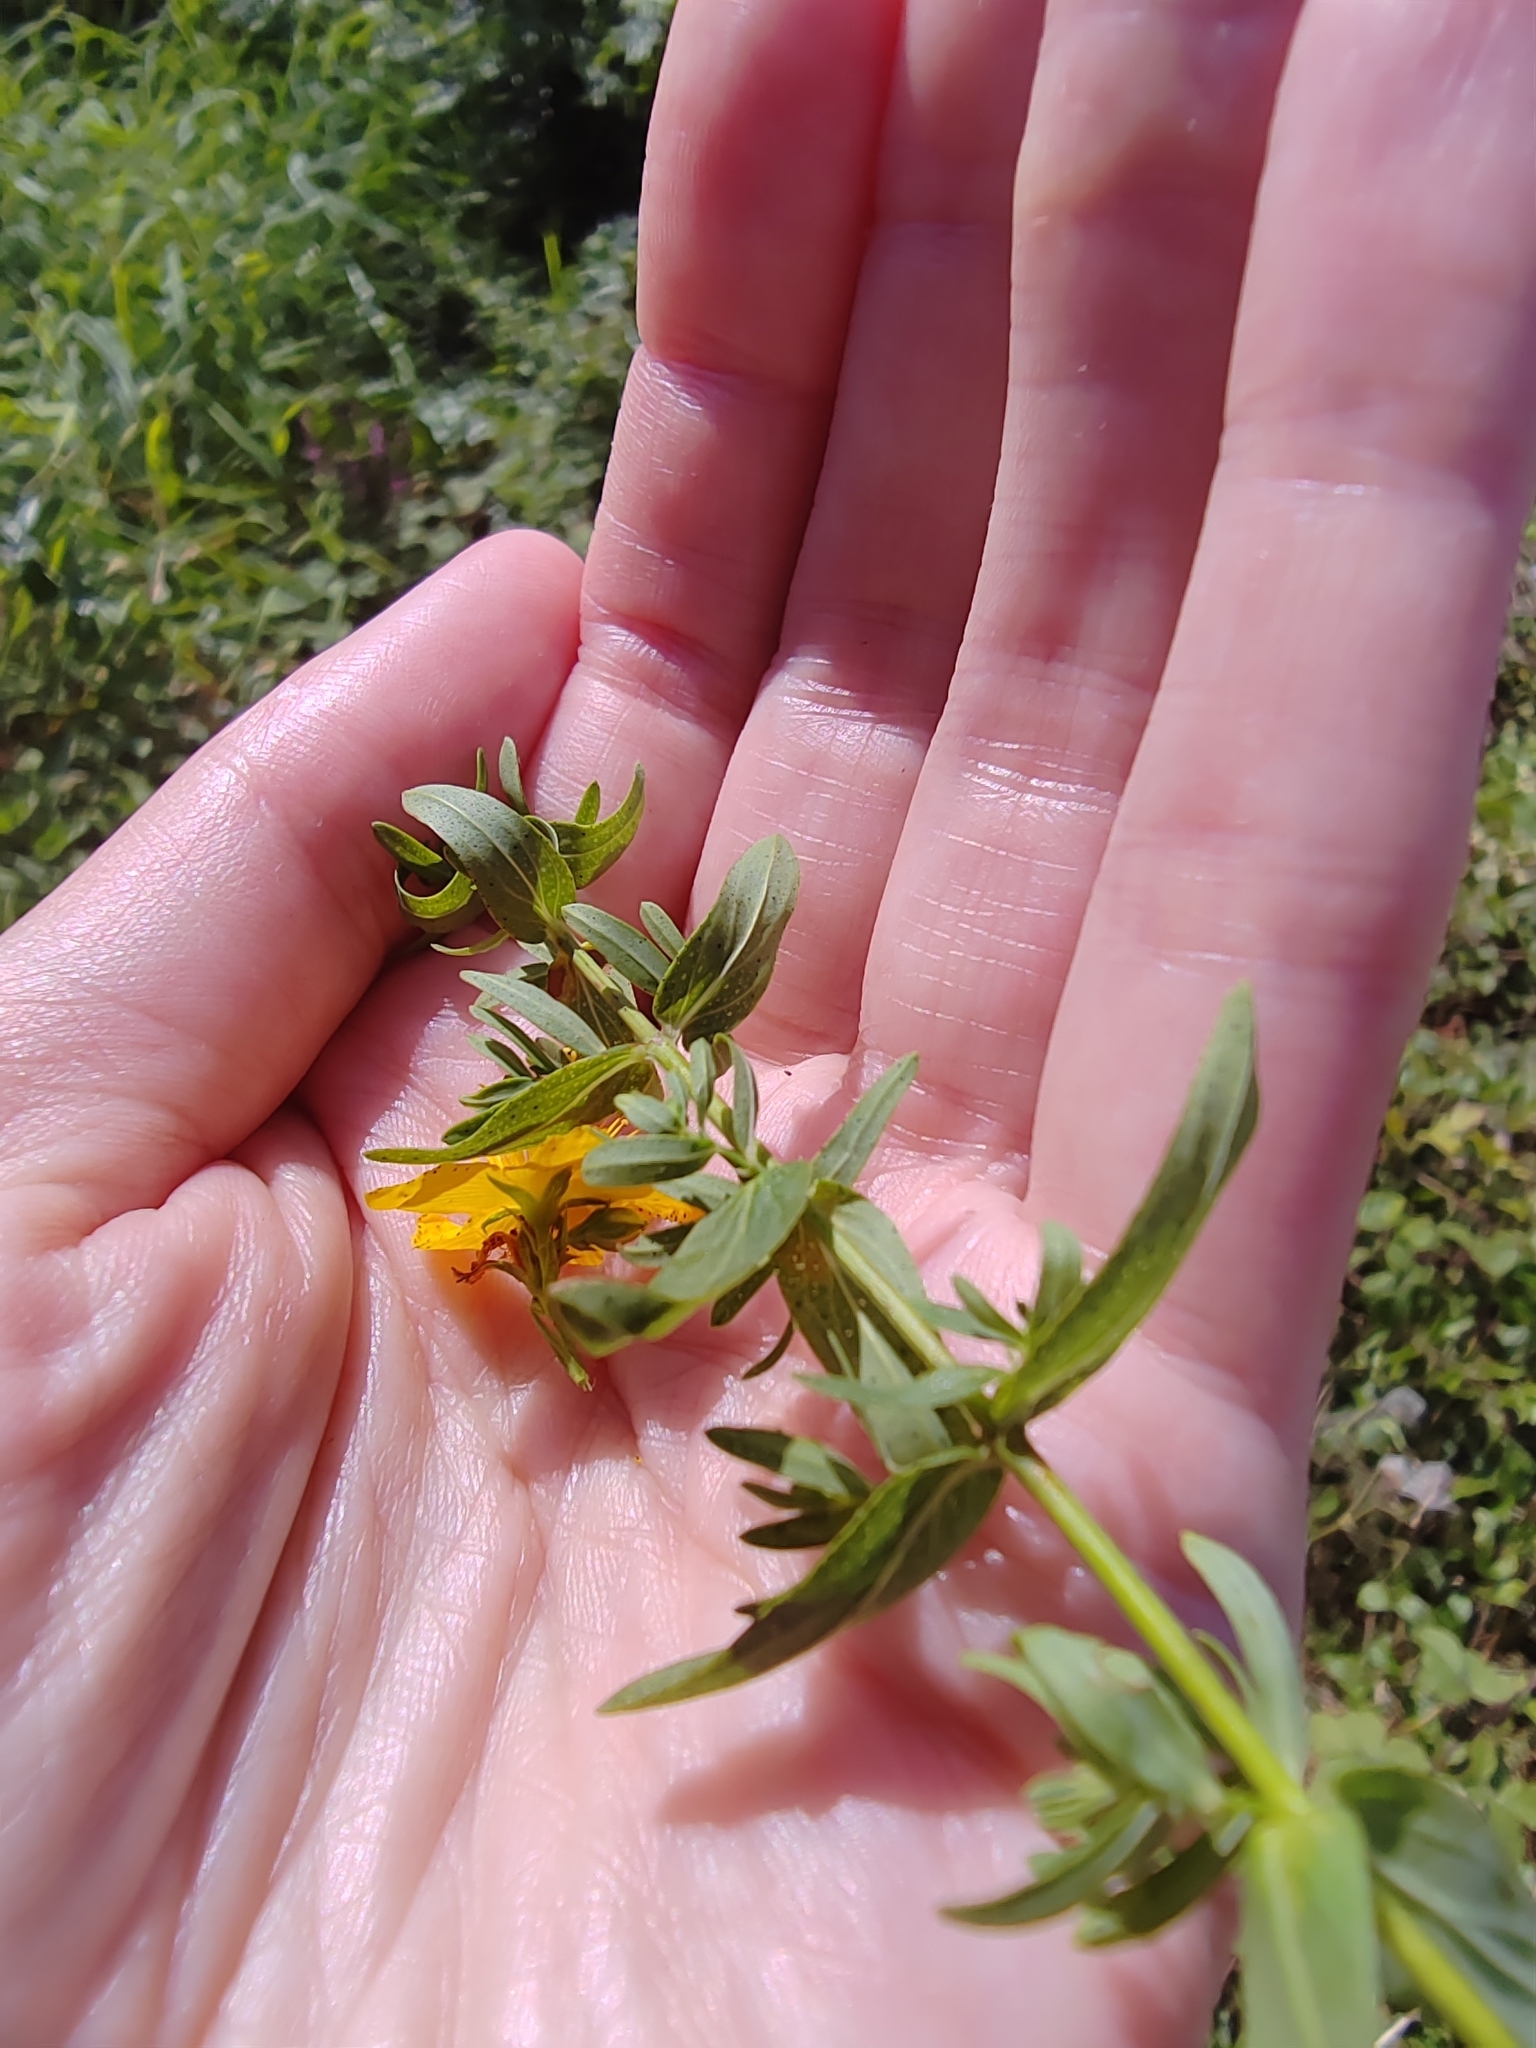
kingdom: Plantae
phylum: Tracheophyta
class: Magnoliopsida
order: Malpighiales
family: Hypericaceae
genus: Hypericum
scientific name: Hypericum perforatum
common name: Common st. johnswort
